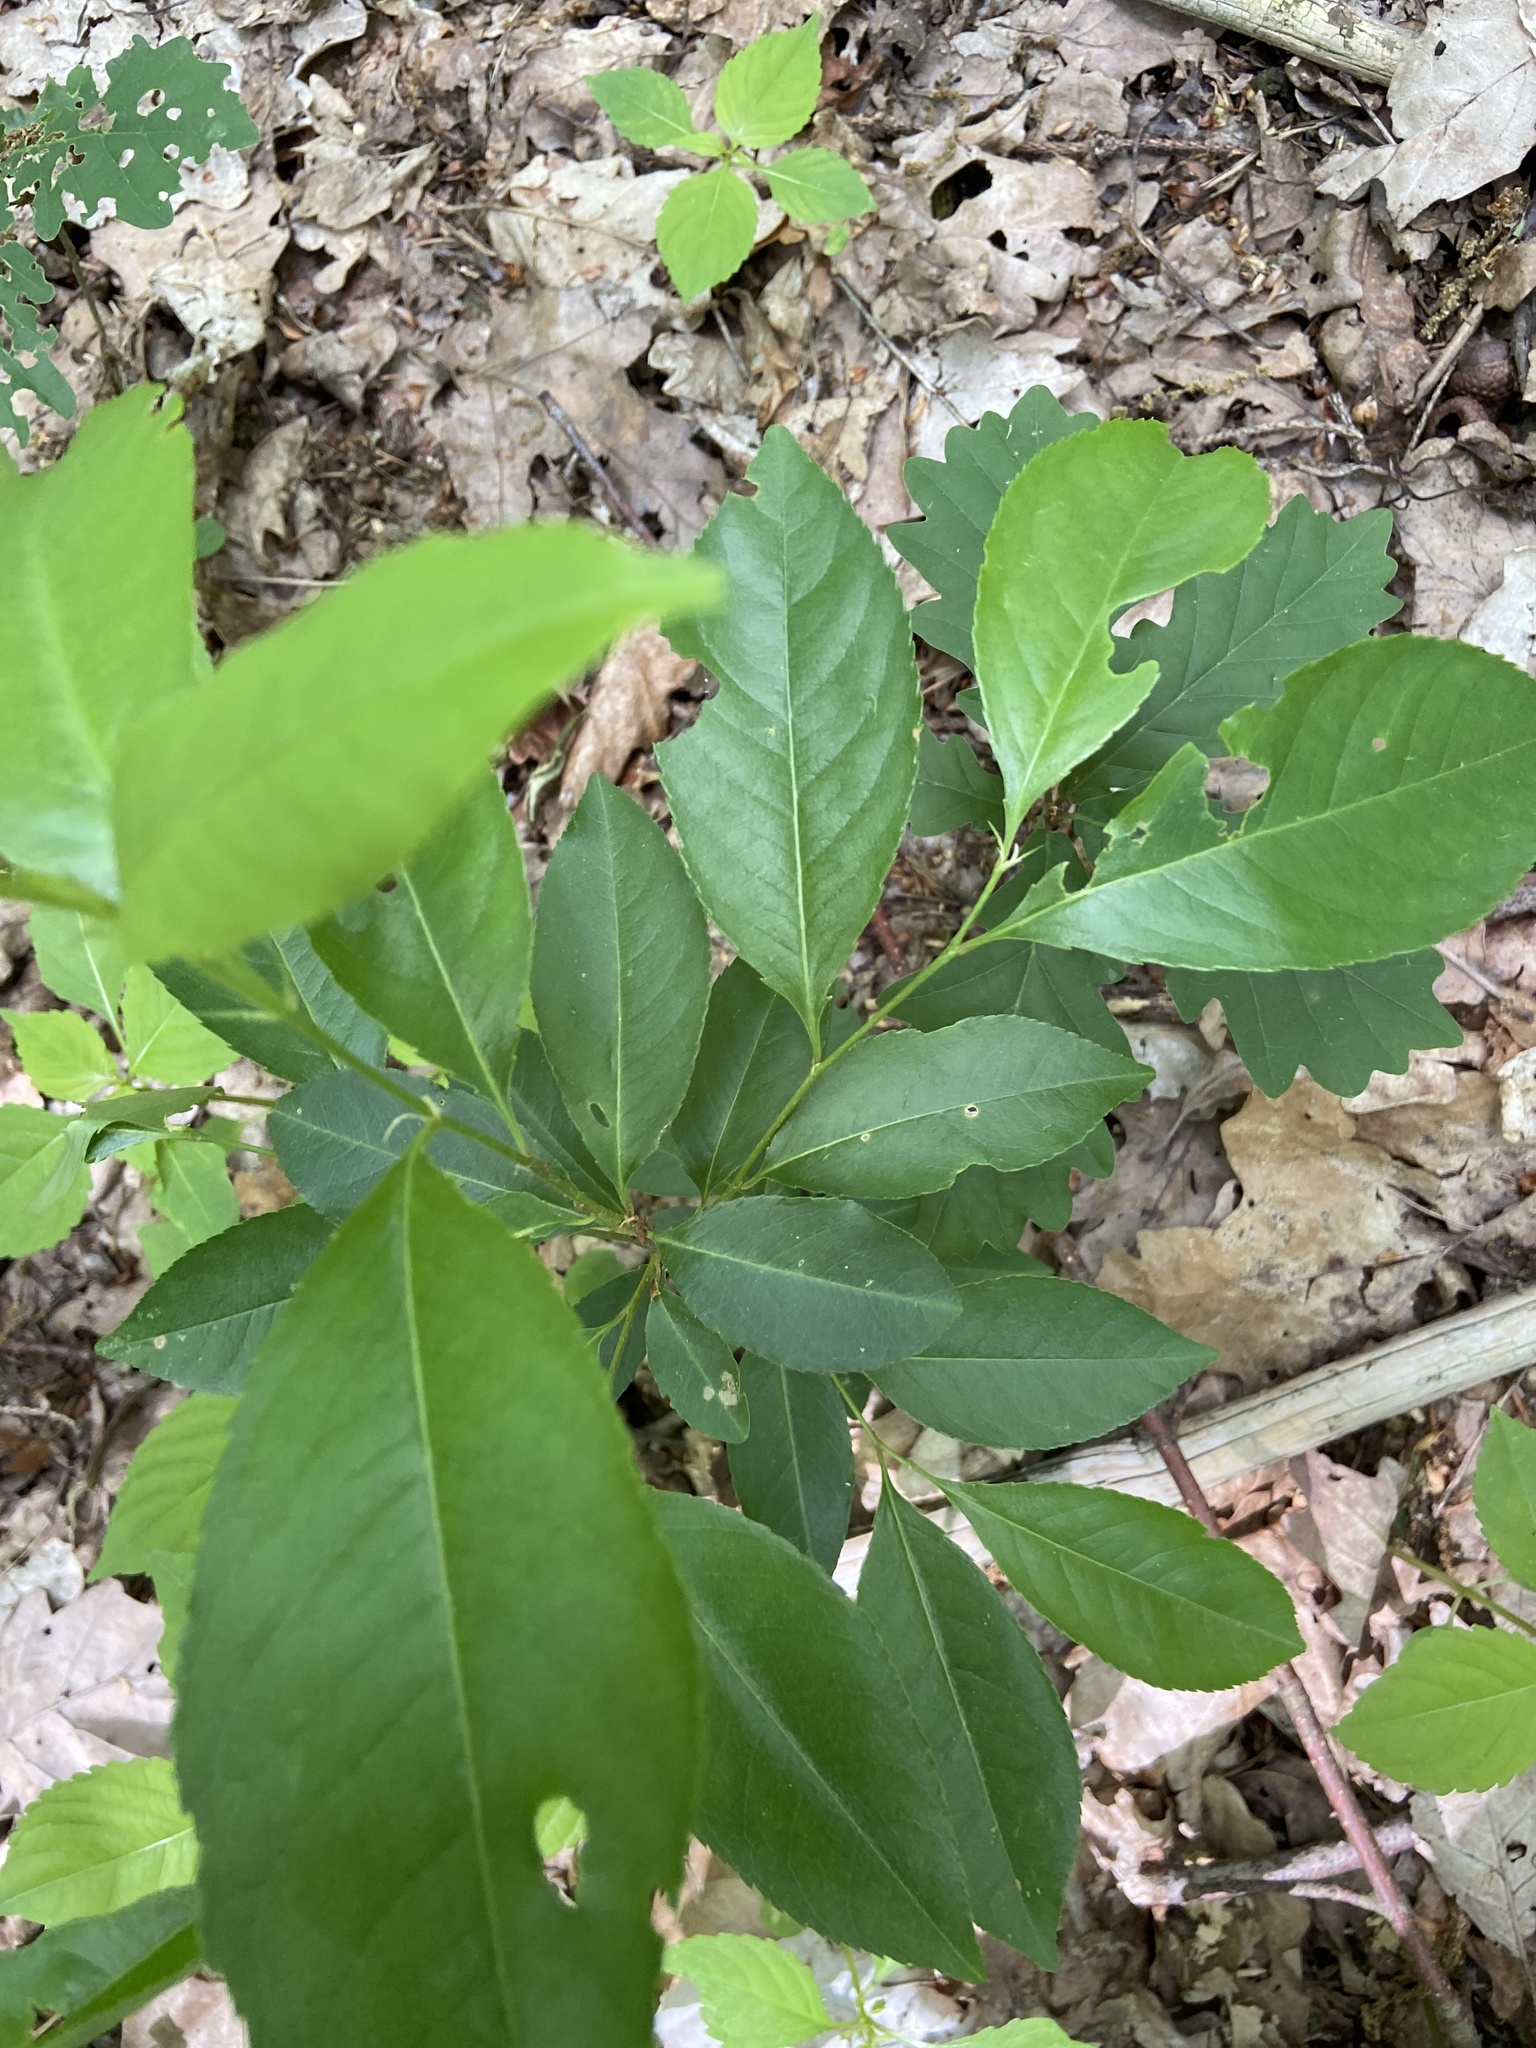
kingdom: Plantae
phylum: Tracheophyta
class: Magnoliopsida
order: Rosales
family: Rosaceae
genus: Prunus
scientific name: Prunus serotina
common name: Black cherry
